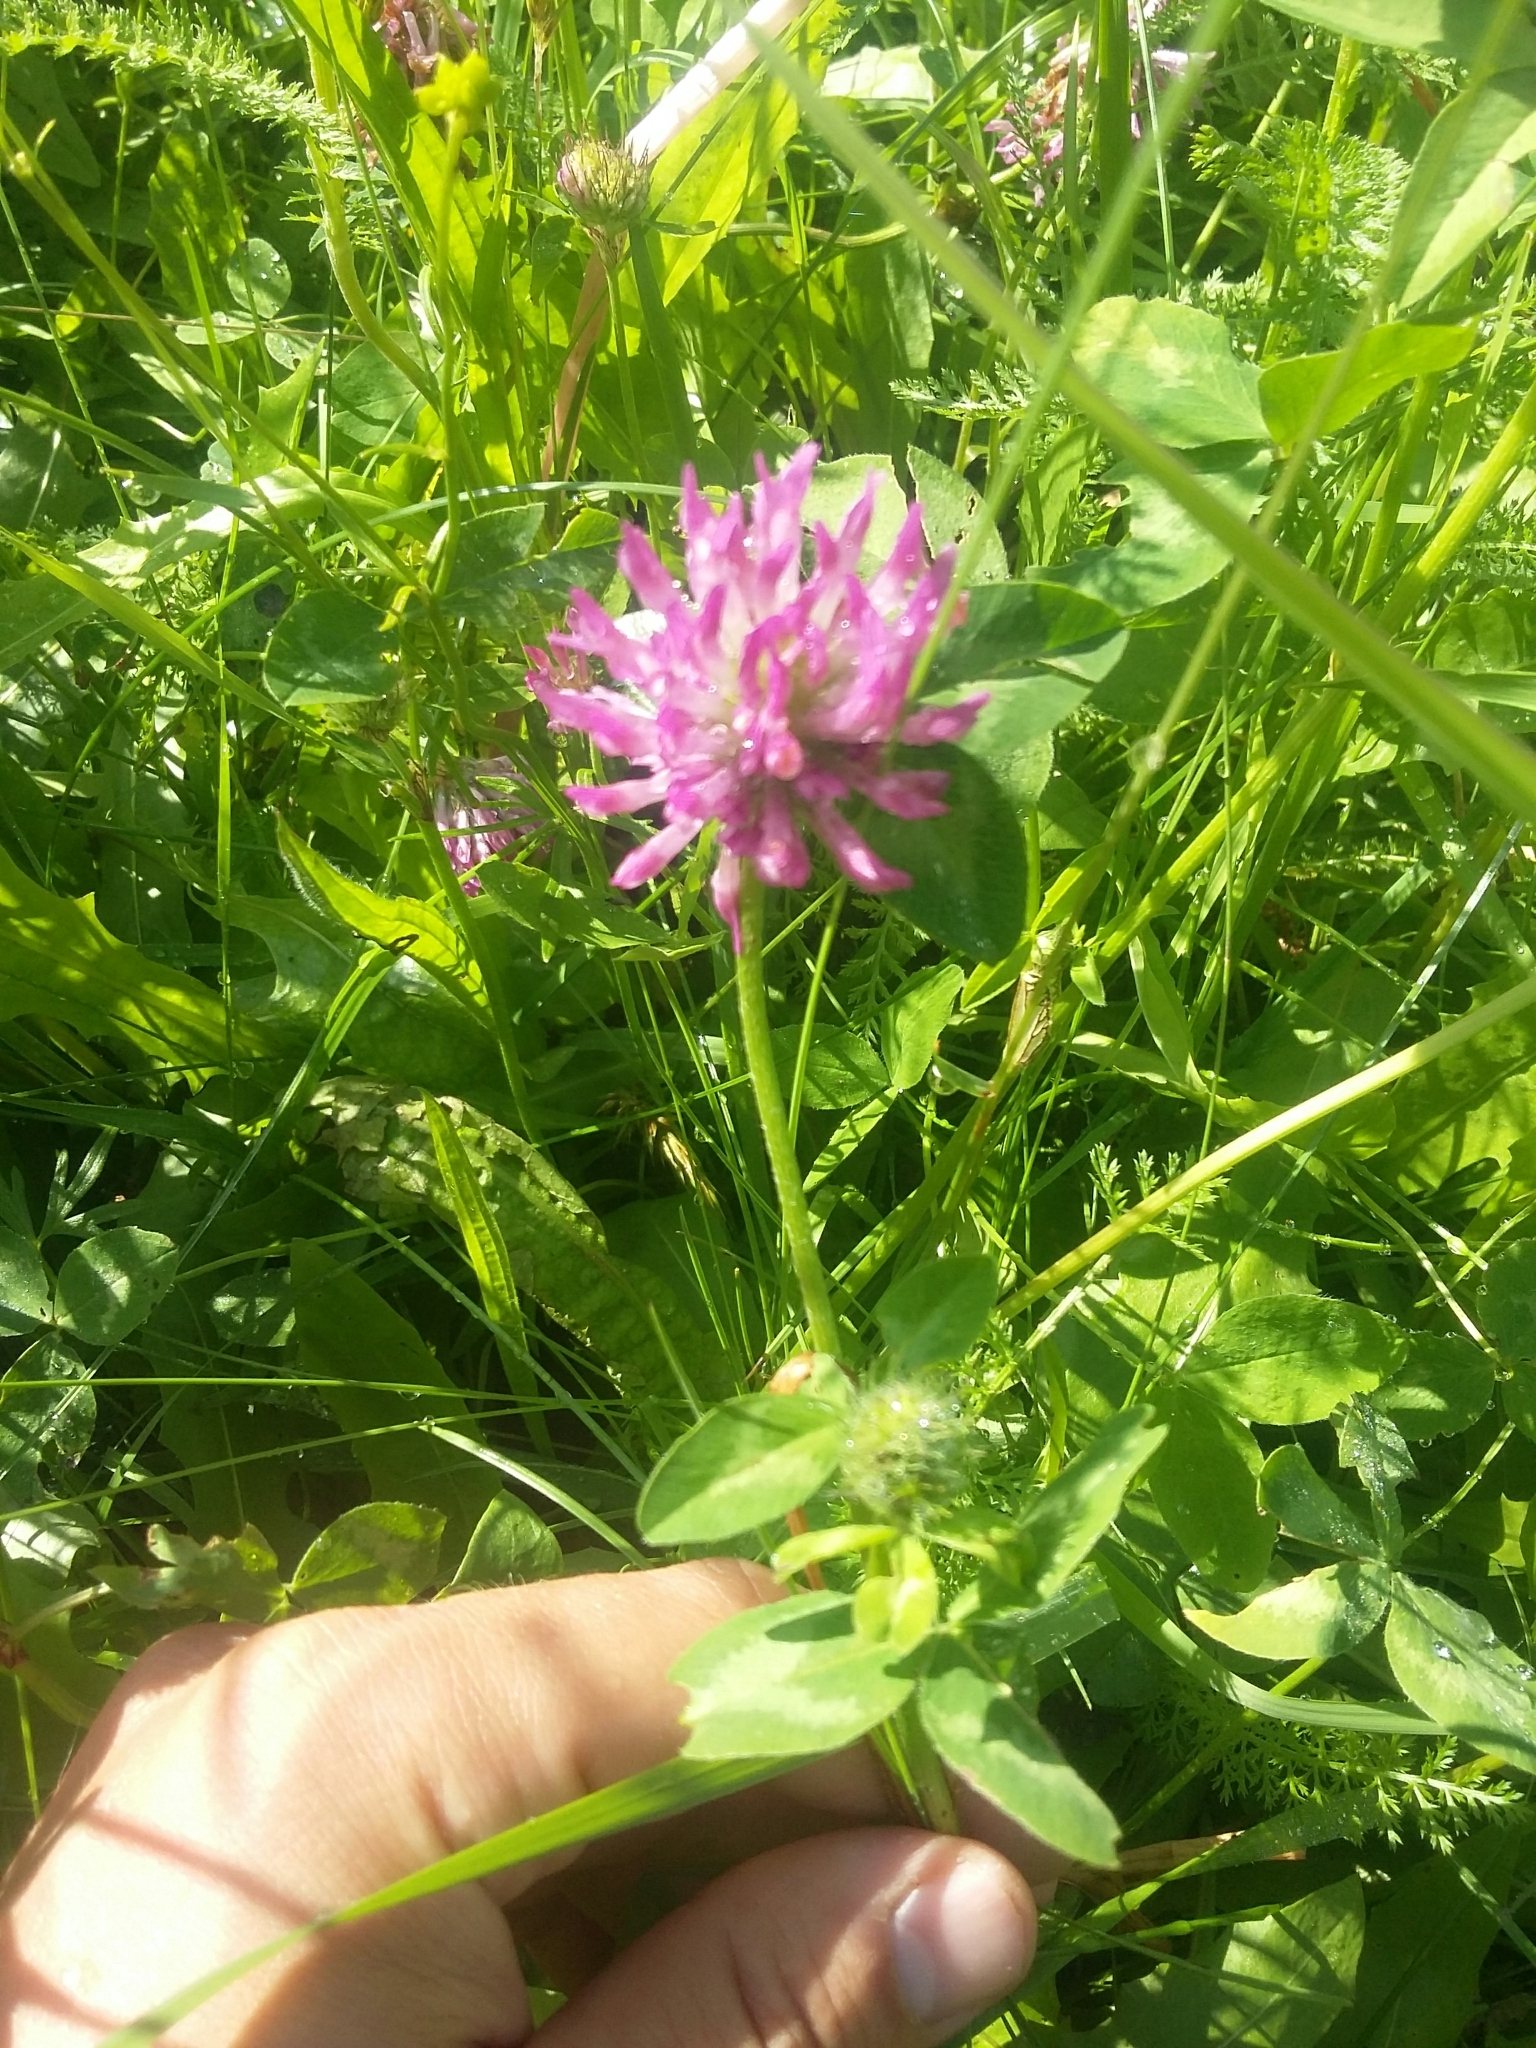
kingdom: Plantae
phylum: Tracheophyta
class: Magnoliopsida
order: Fabales
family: Fabaceae
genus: Trifolium
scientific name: Trifolium pratense
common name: Red clover
